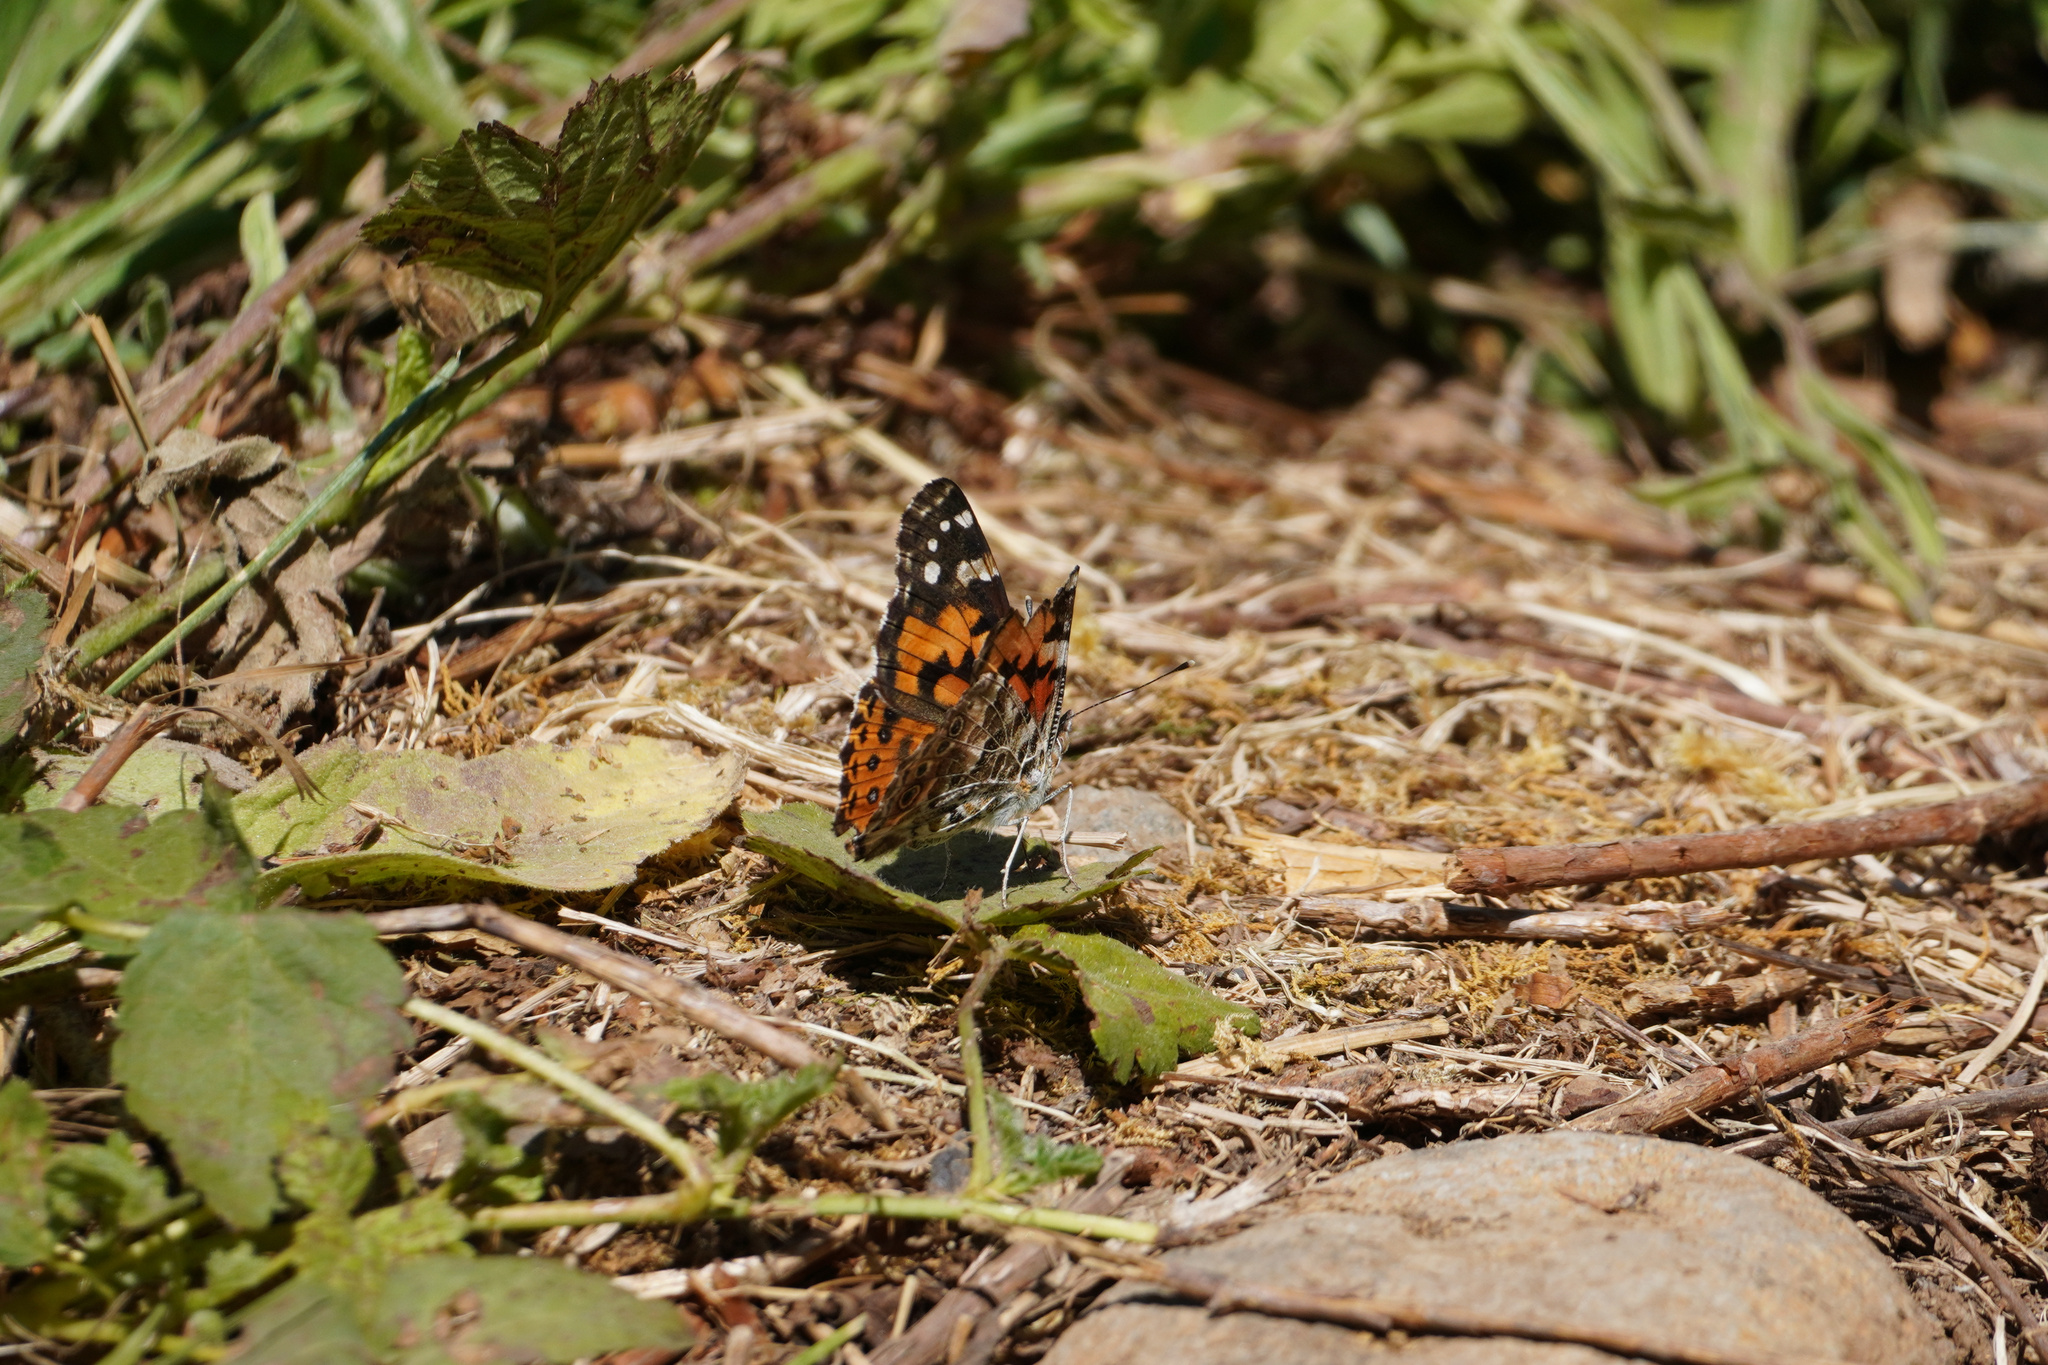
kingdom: Animalia
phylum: Arthropoda
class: Insecta
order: Lepidoptera
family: Nymphalidae
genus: Vanessa
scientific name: Vanessa cardui
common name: Painted lady
